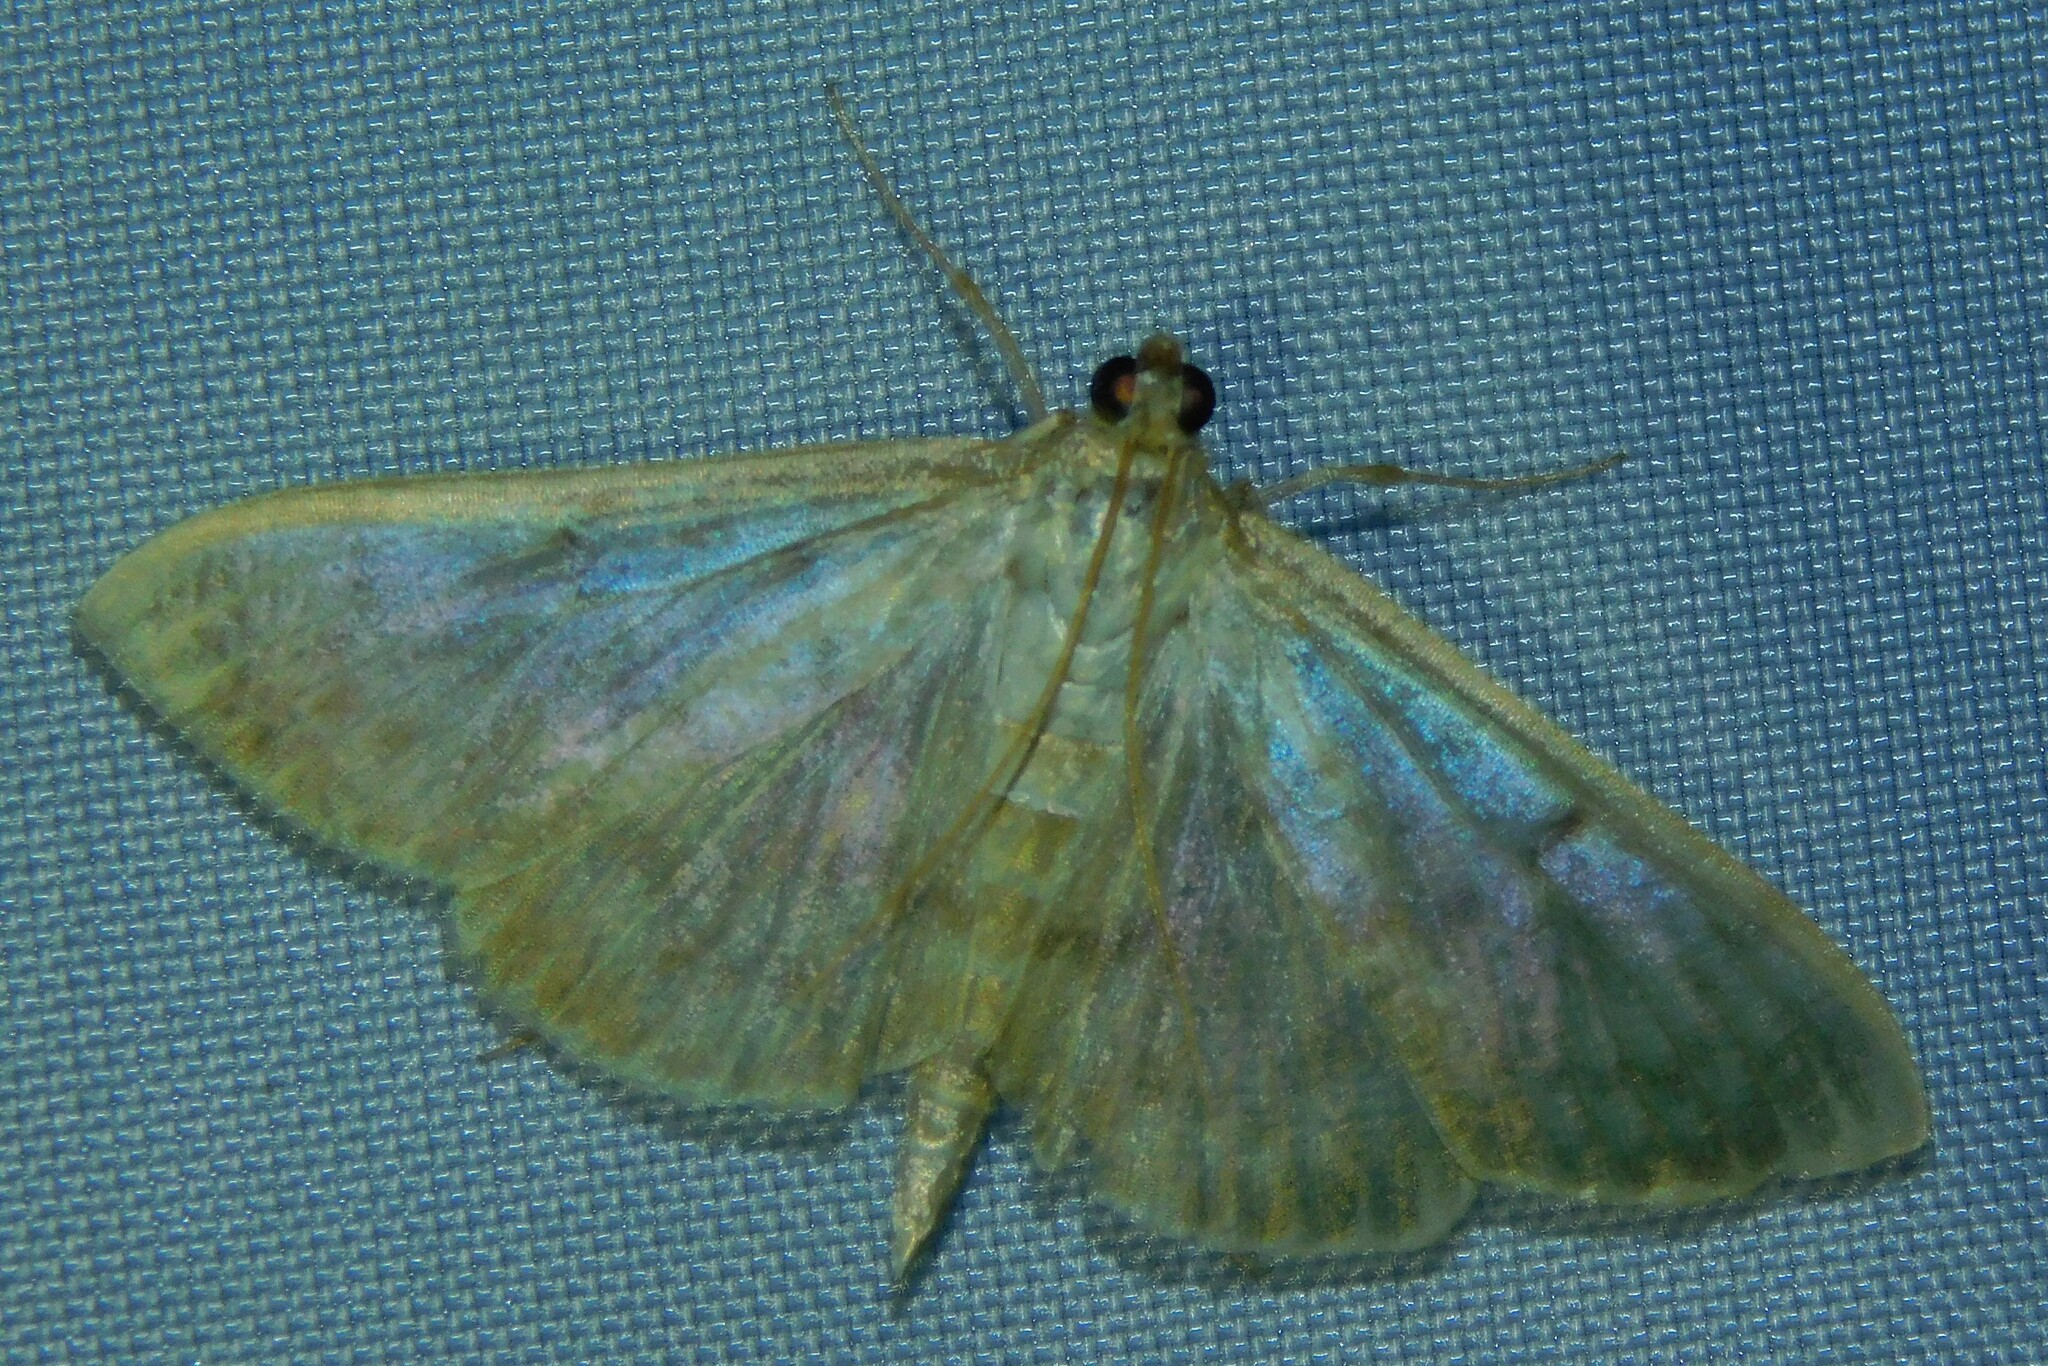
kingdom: Animalia
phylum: Arthropoda
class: Insecta
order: Lepidoptera
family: Crambidae
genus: Patania
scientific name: Patania ruralis
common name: Mother of pearl
